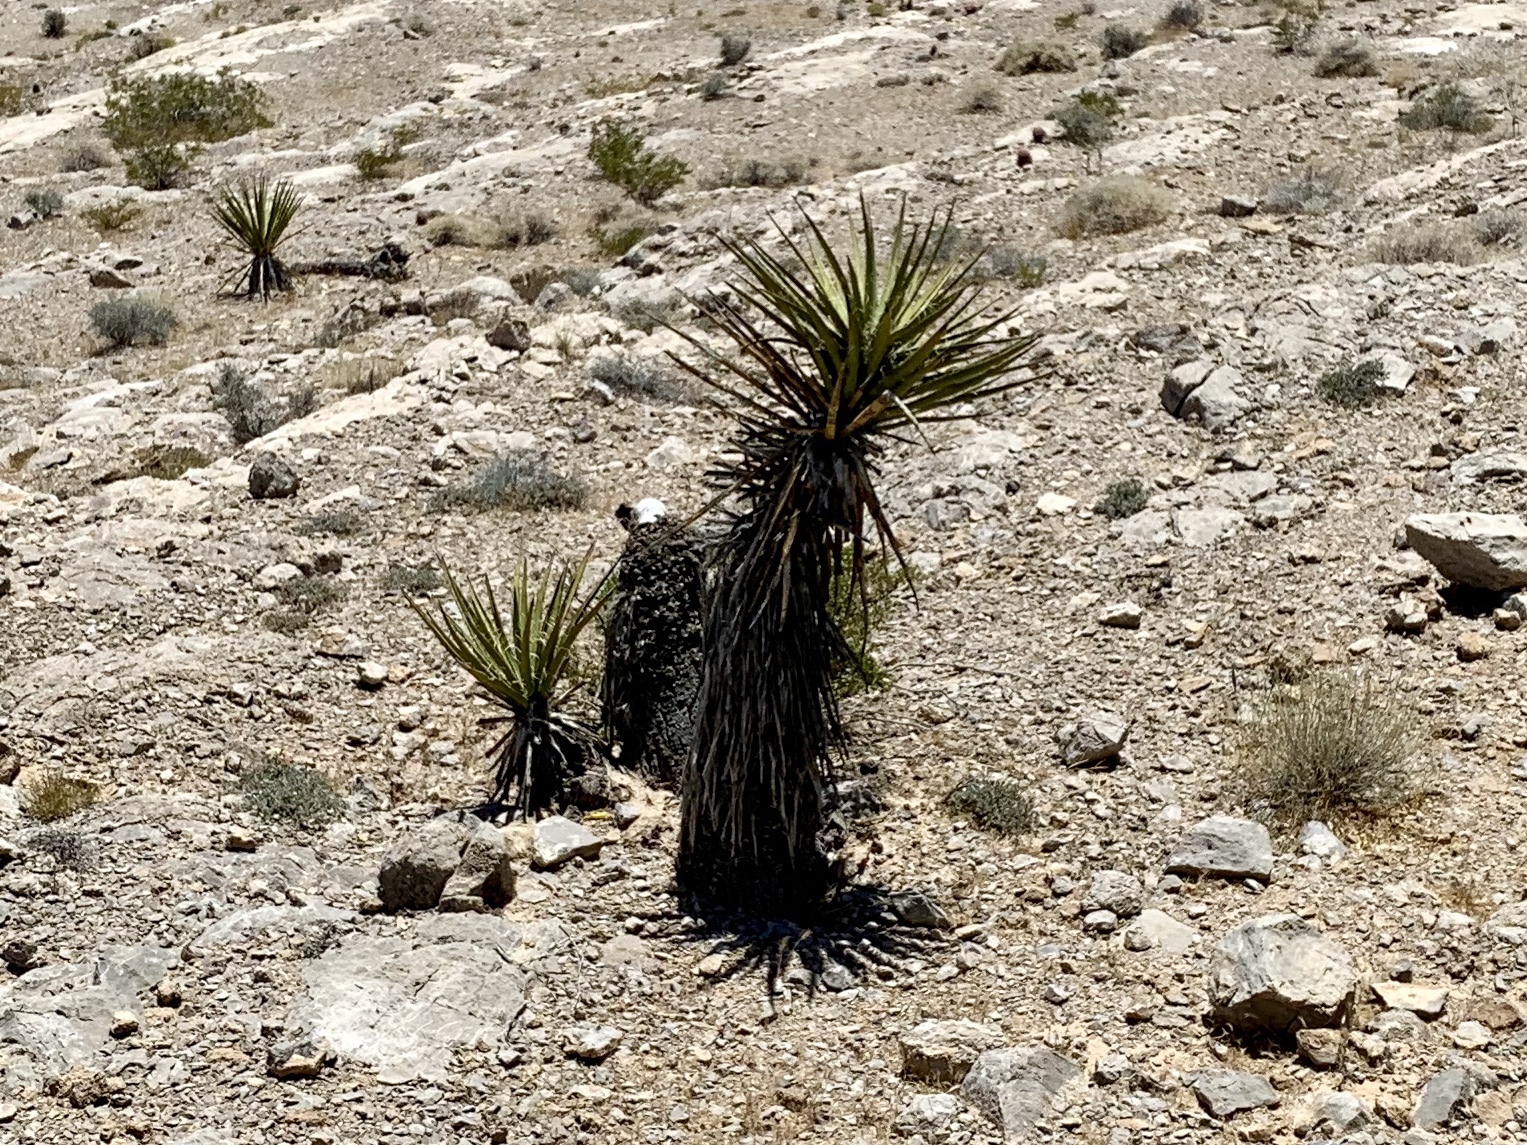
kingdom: Plantae
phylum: Tracheophyta
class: Liliopsida
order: Asparagales
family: Asparagaceae
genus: Yucca
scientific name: Yucca baccata
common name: Banana yucca
